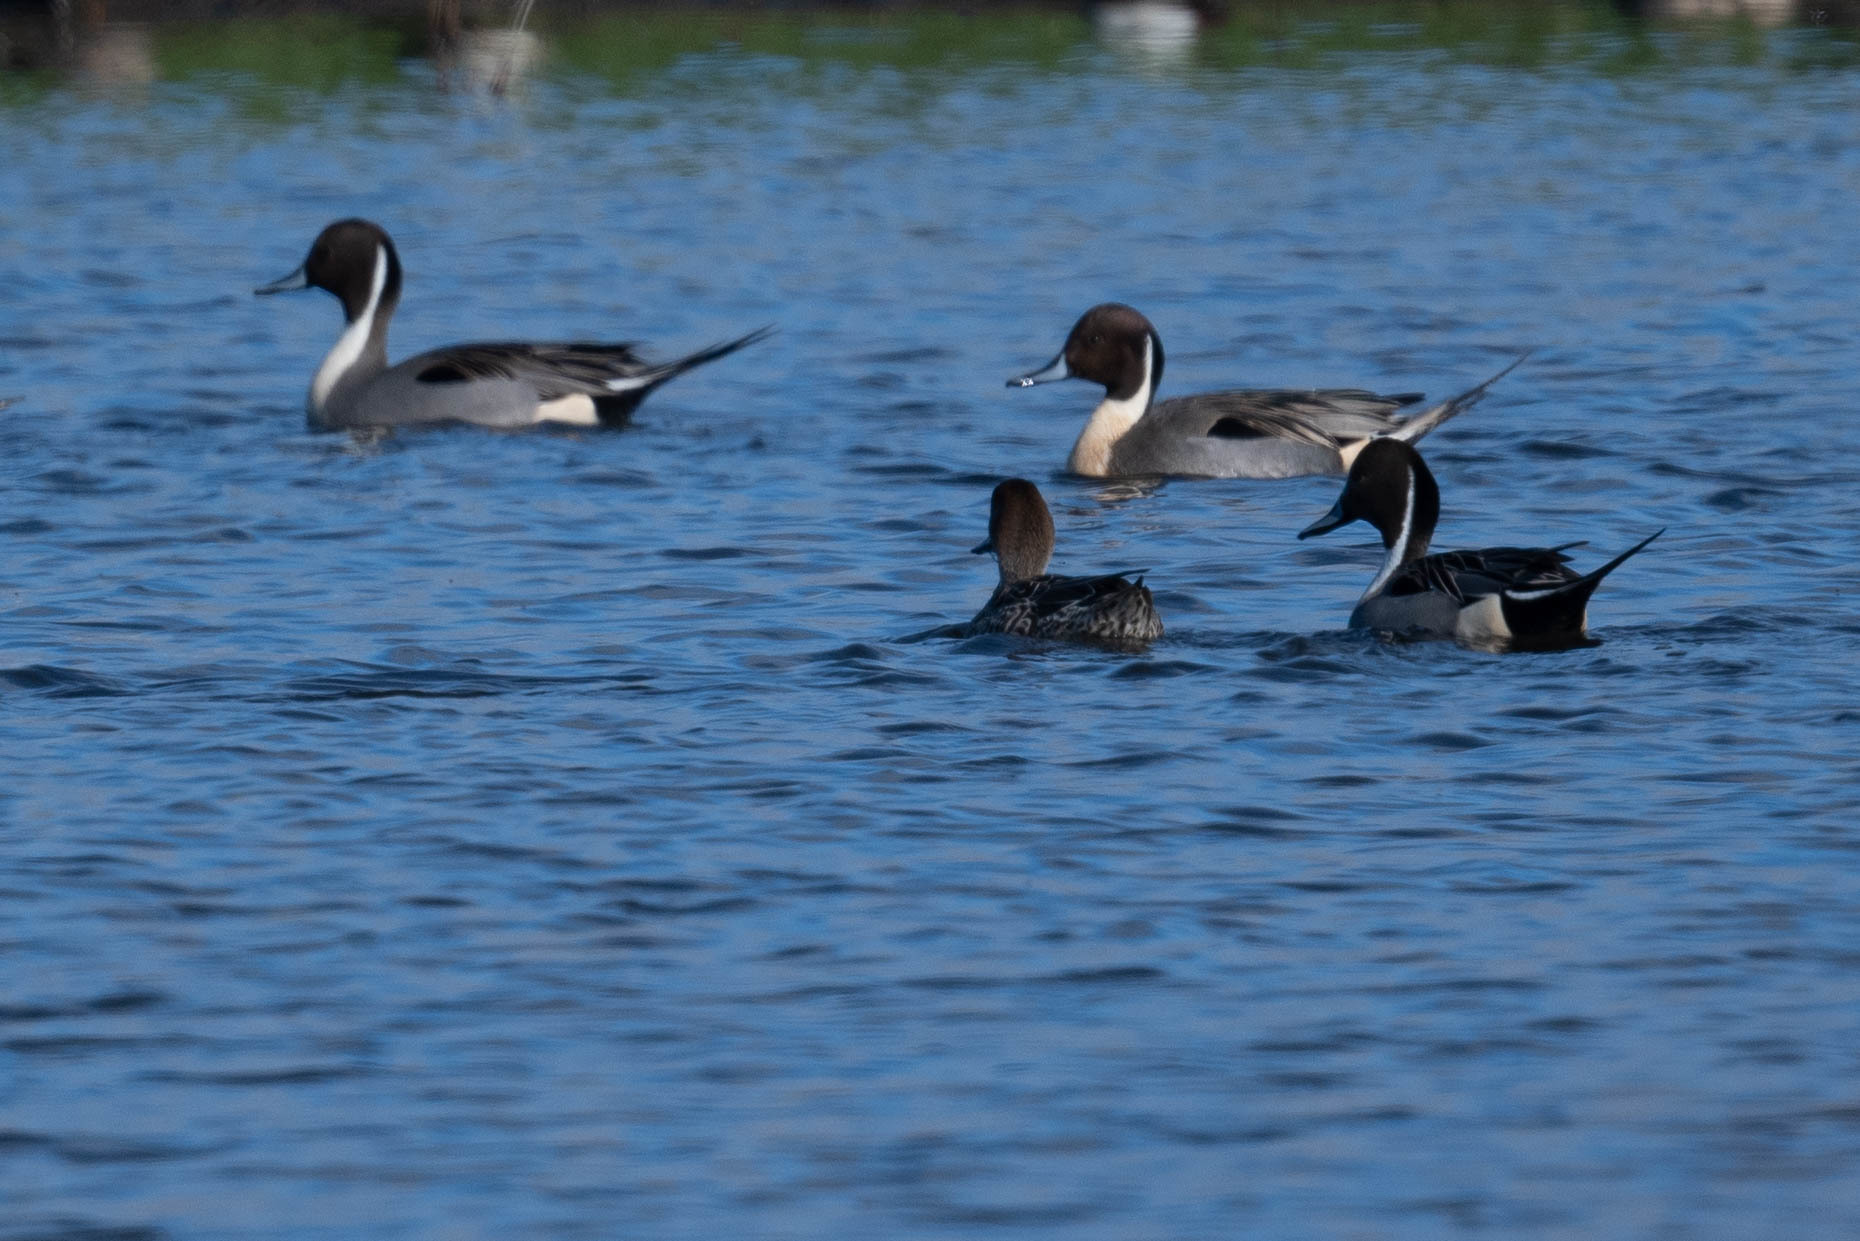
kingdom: Animalia
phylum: Chordata
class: Aves
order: Anseriformes
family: Anatidae
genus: Anas
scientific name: Anas acuta
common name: Northern pintail
